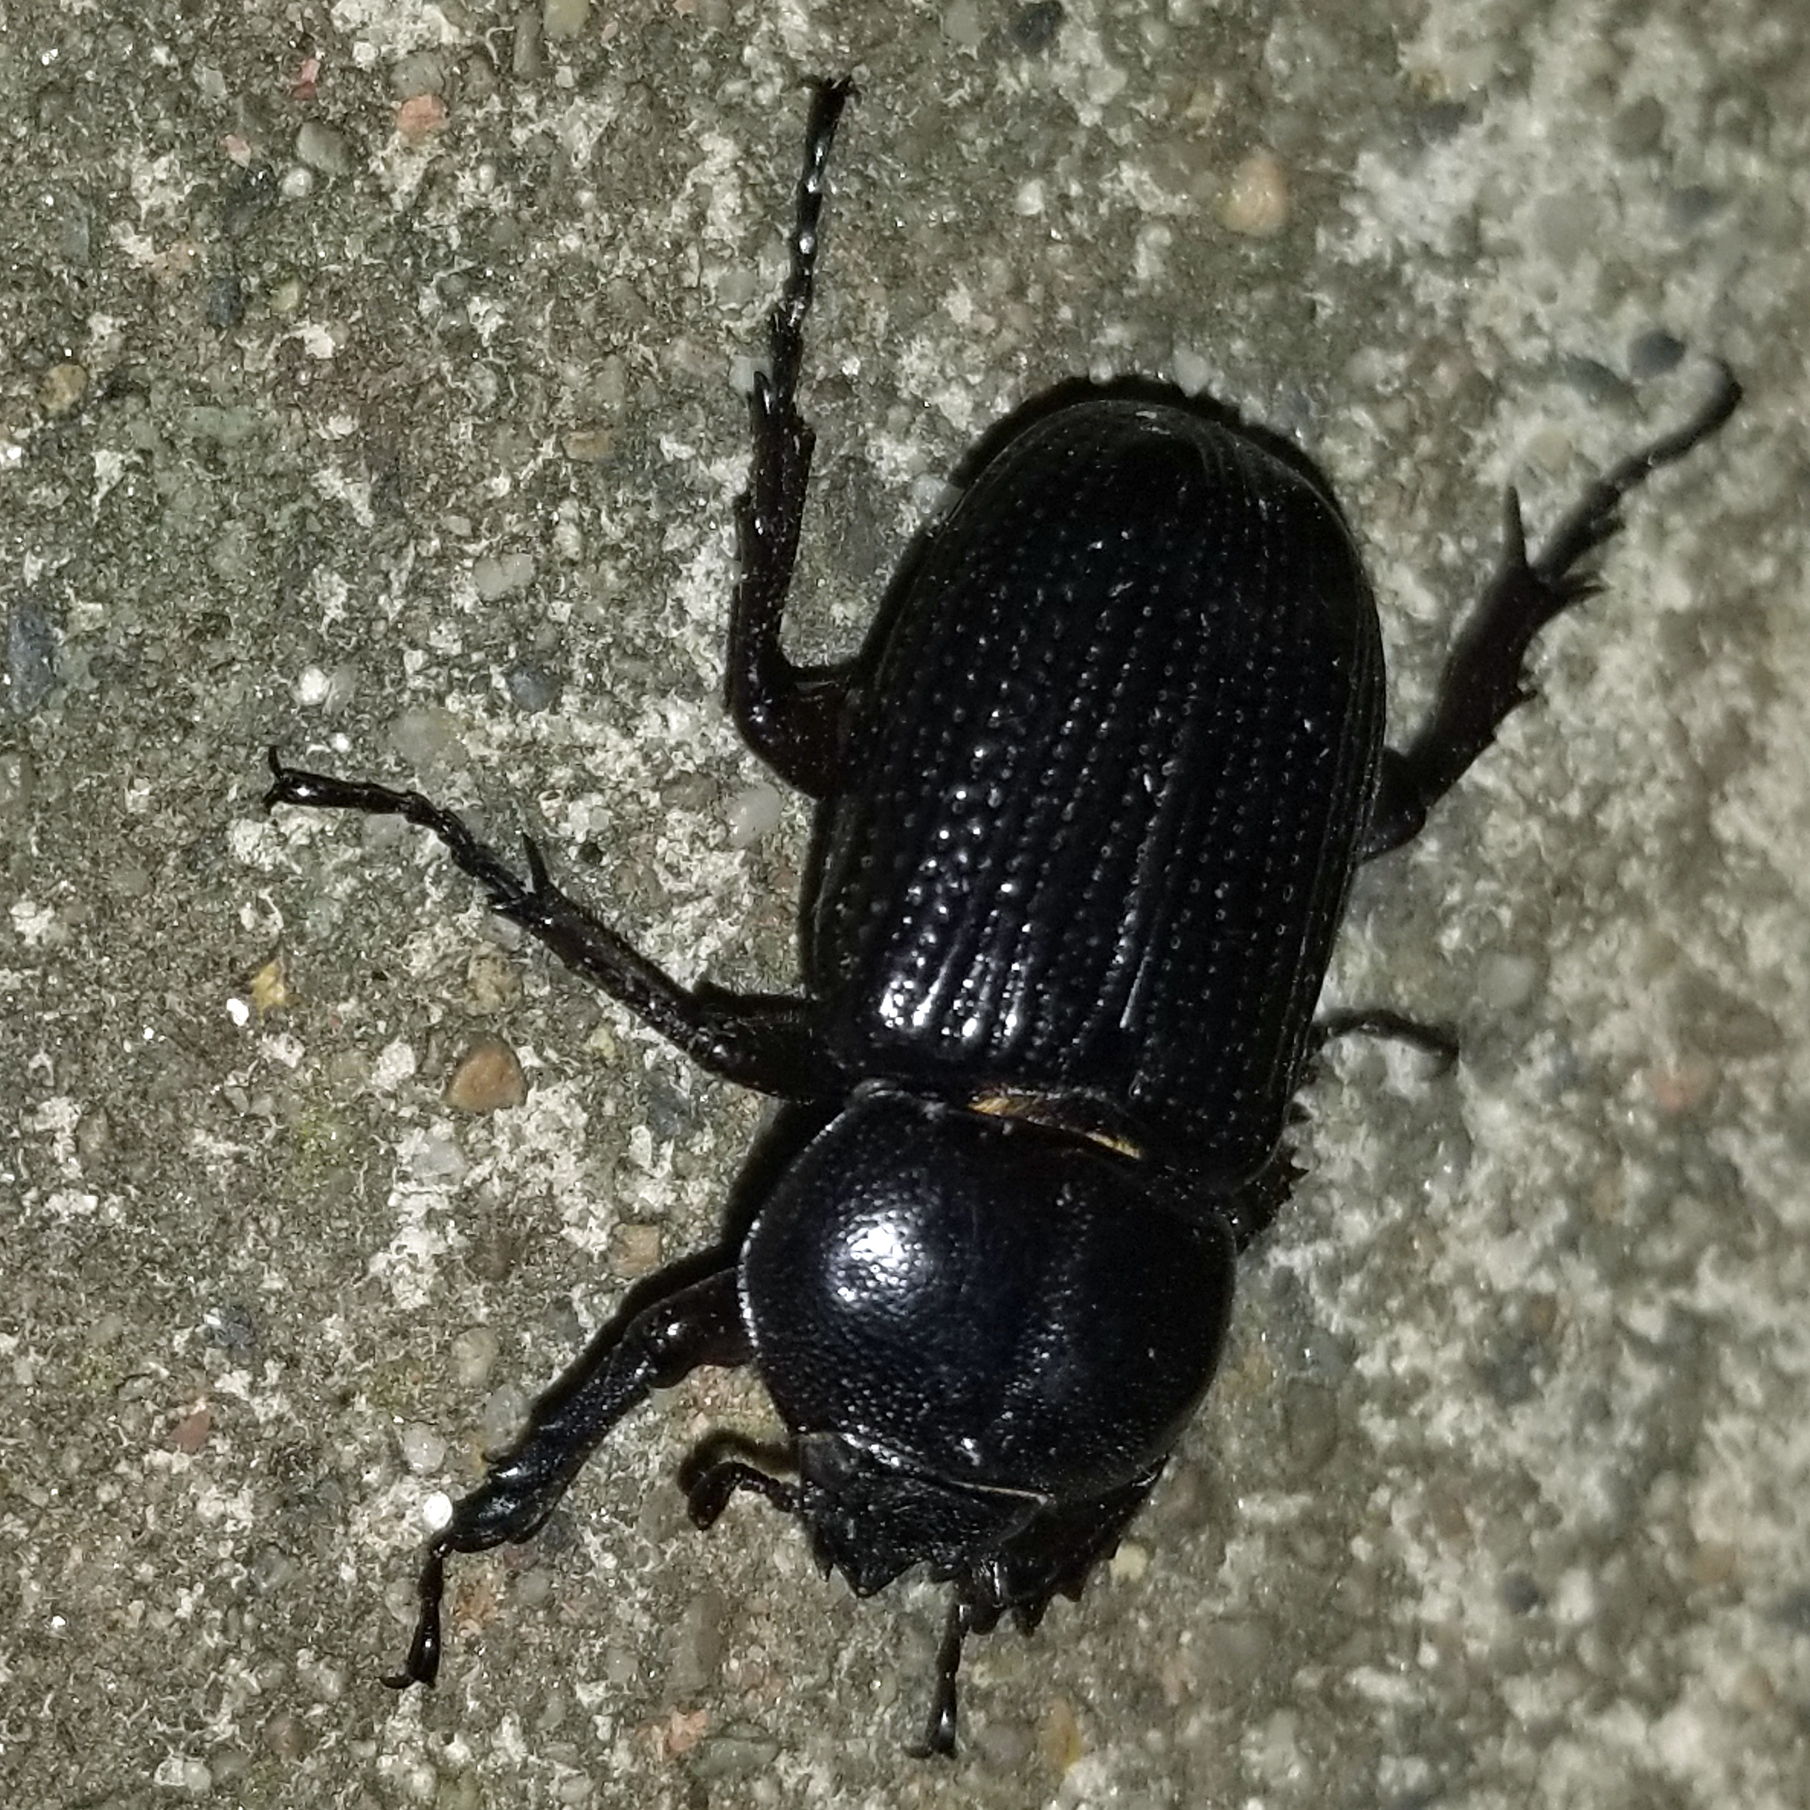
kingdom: Animalia
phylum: Arthropoda
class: Insecta
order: Coleoptera
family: Scarabaeidae
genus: Phileurus
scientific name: Phileurus valgus
